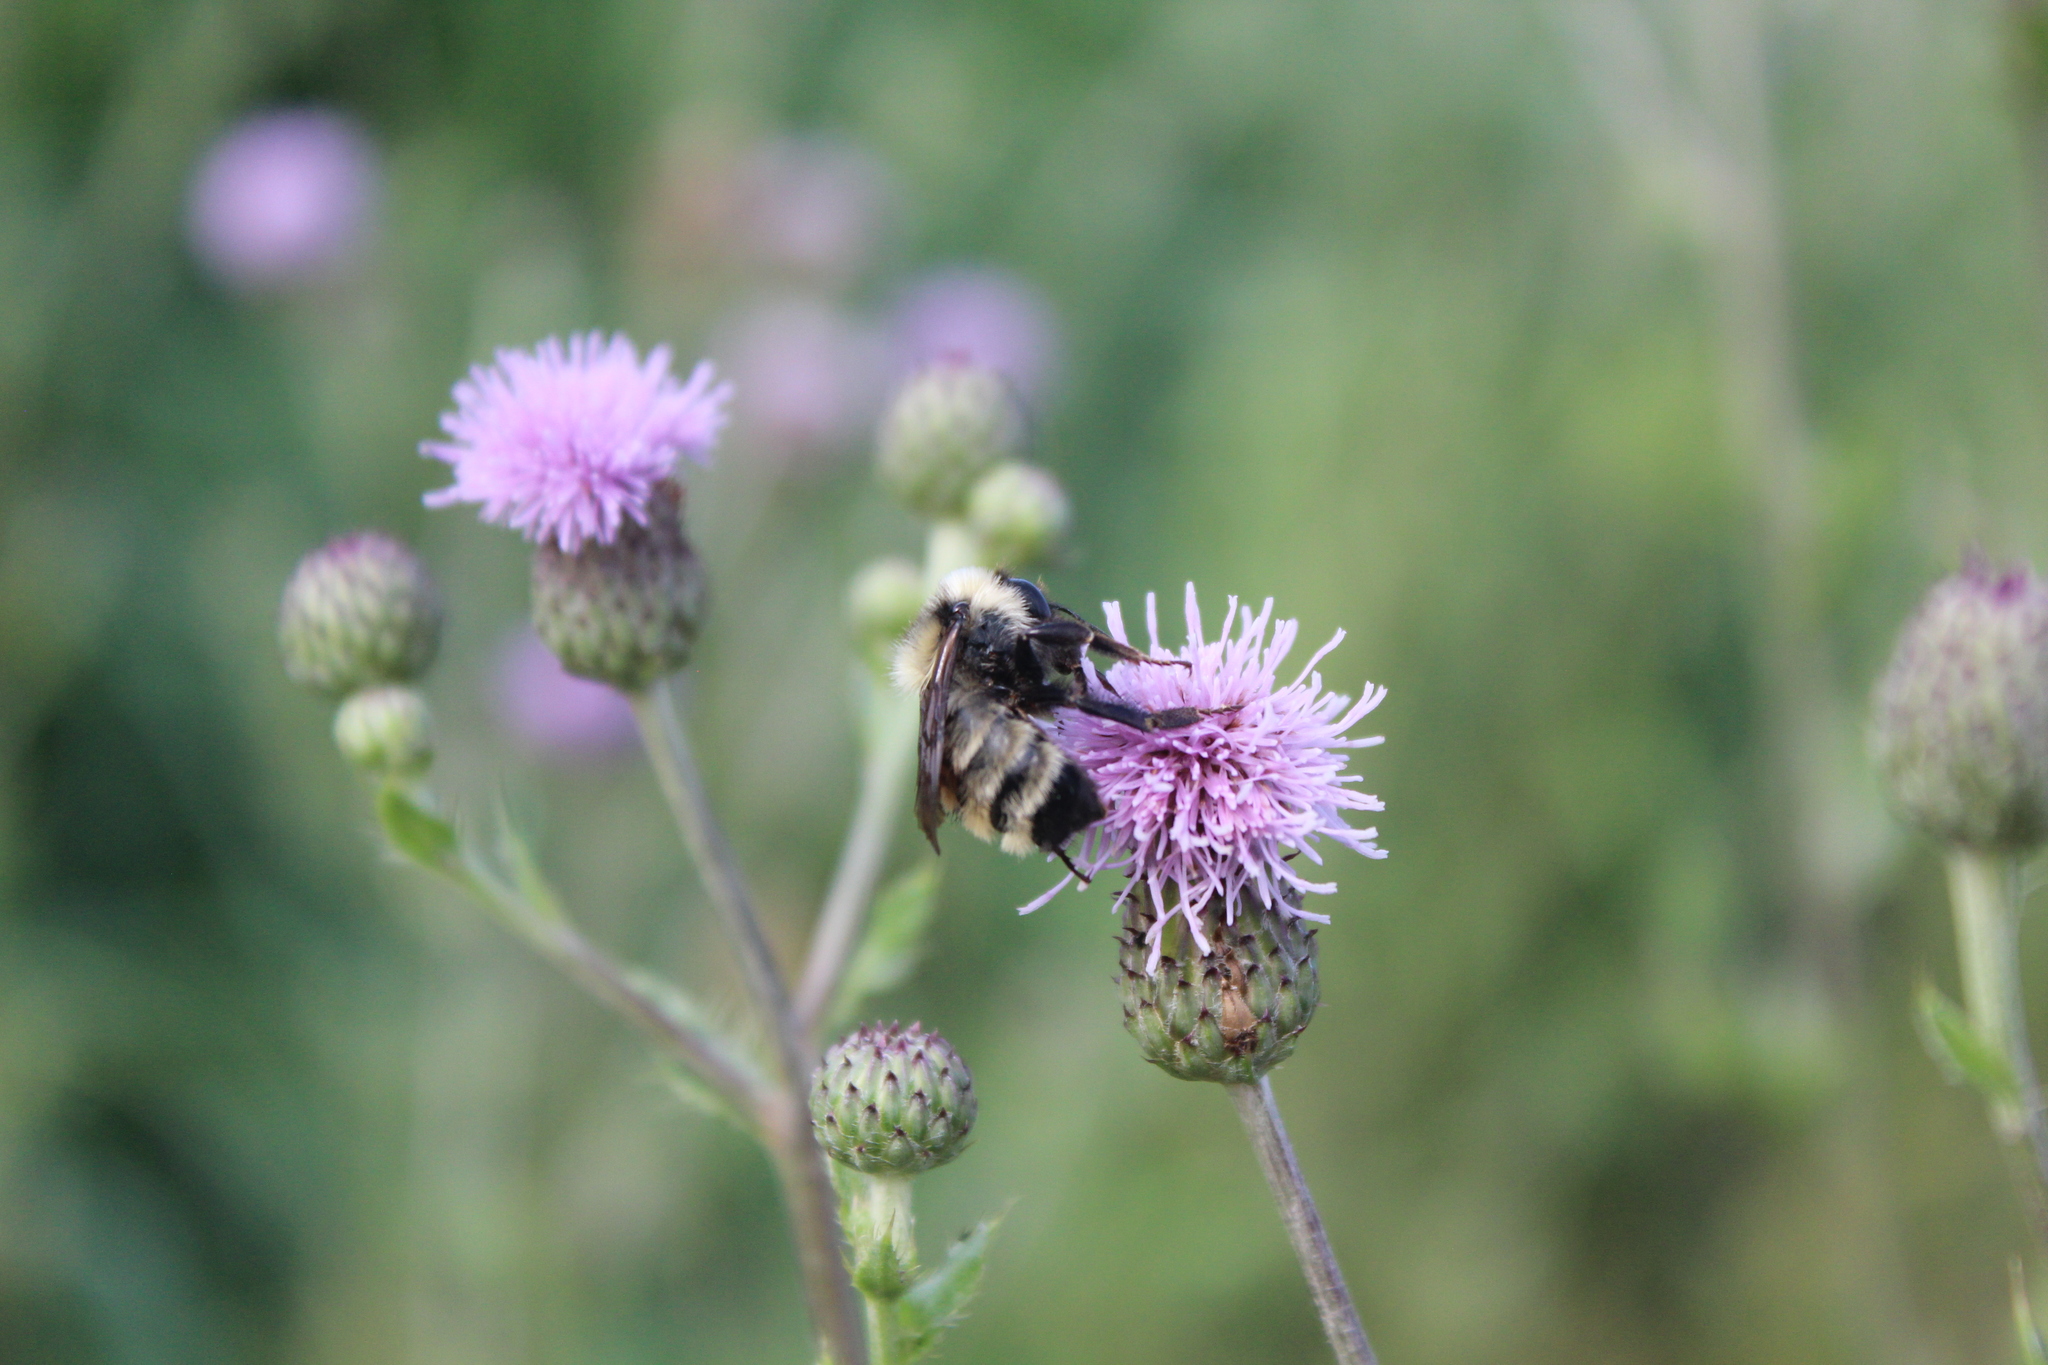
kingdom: Animalia
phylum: Arthropoda
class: Insecta
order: Hymenoptera
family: Apidae
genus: Bombus
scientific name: Bombus fervidus
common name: Yellow bumble bee
